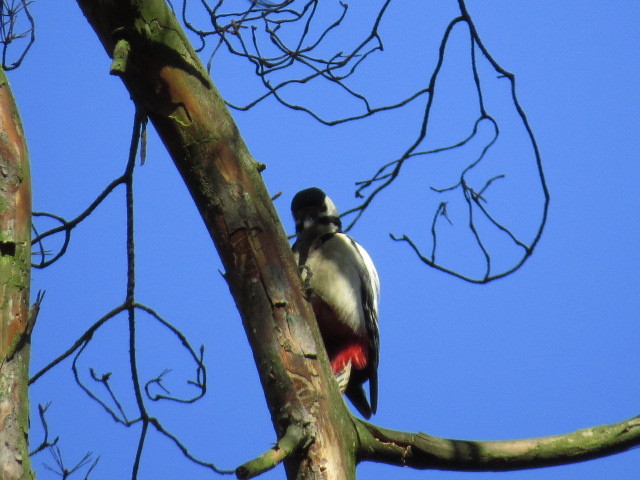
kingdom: Animalia
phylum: Chordata
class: Aves
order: Piciformes
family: Picidae
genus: Dendrocopos
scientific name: Dendrocopos major
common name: Great spotted woodpecker
